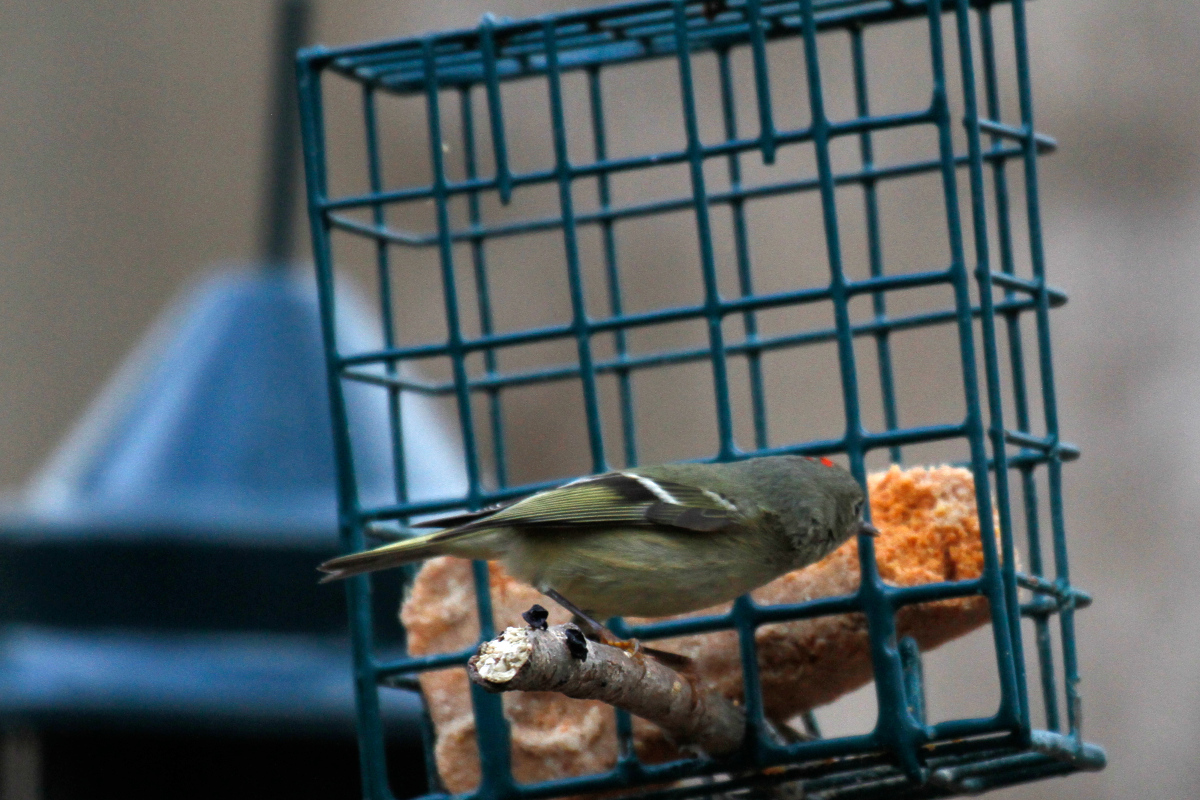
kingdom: Animalia
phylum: Chordata
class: Aves
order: Passeriformes
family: Regulidae
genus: Regulus
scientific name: Regulus calendula
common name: Ruby-crowned kinglet
